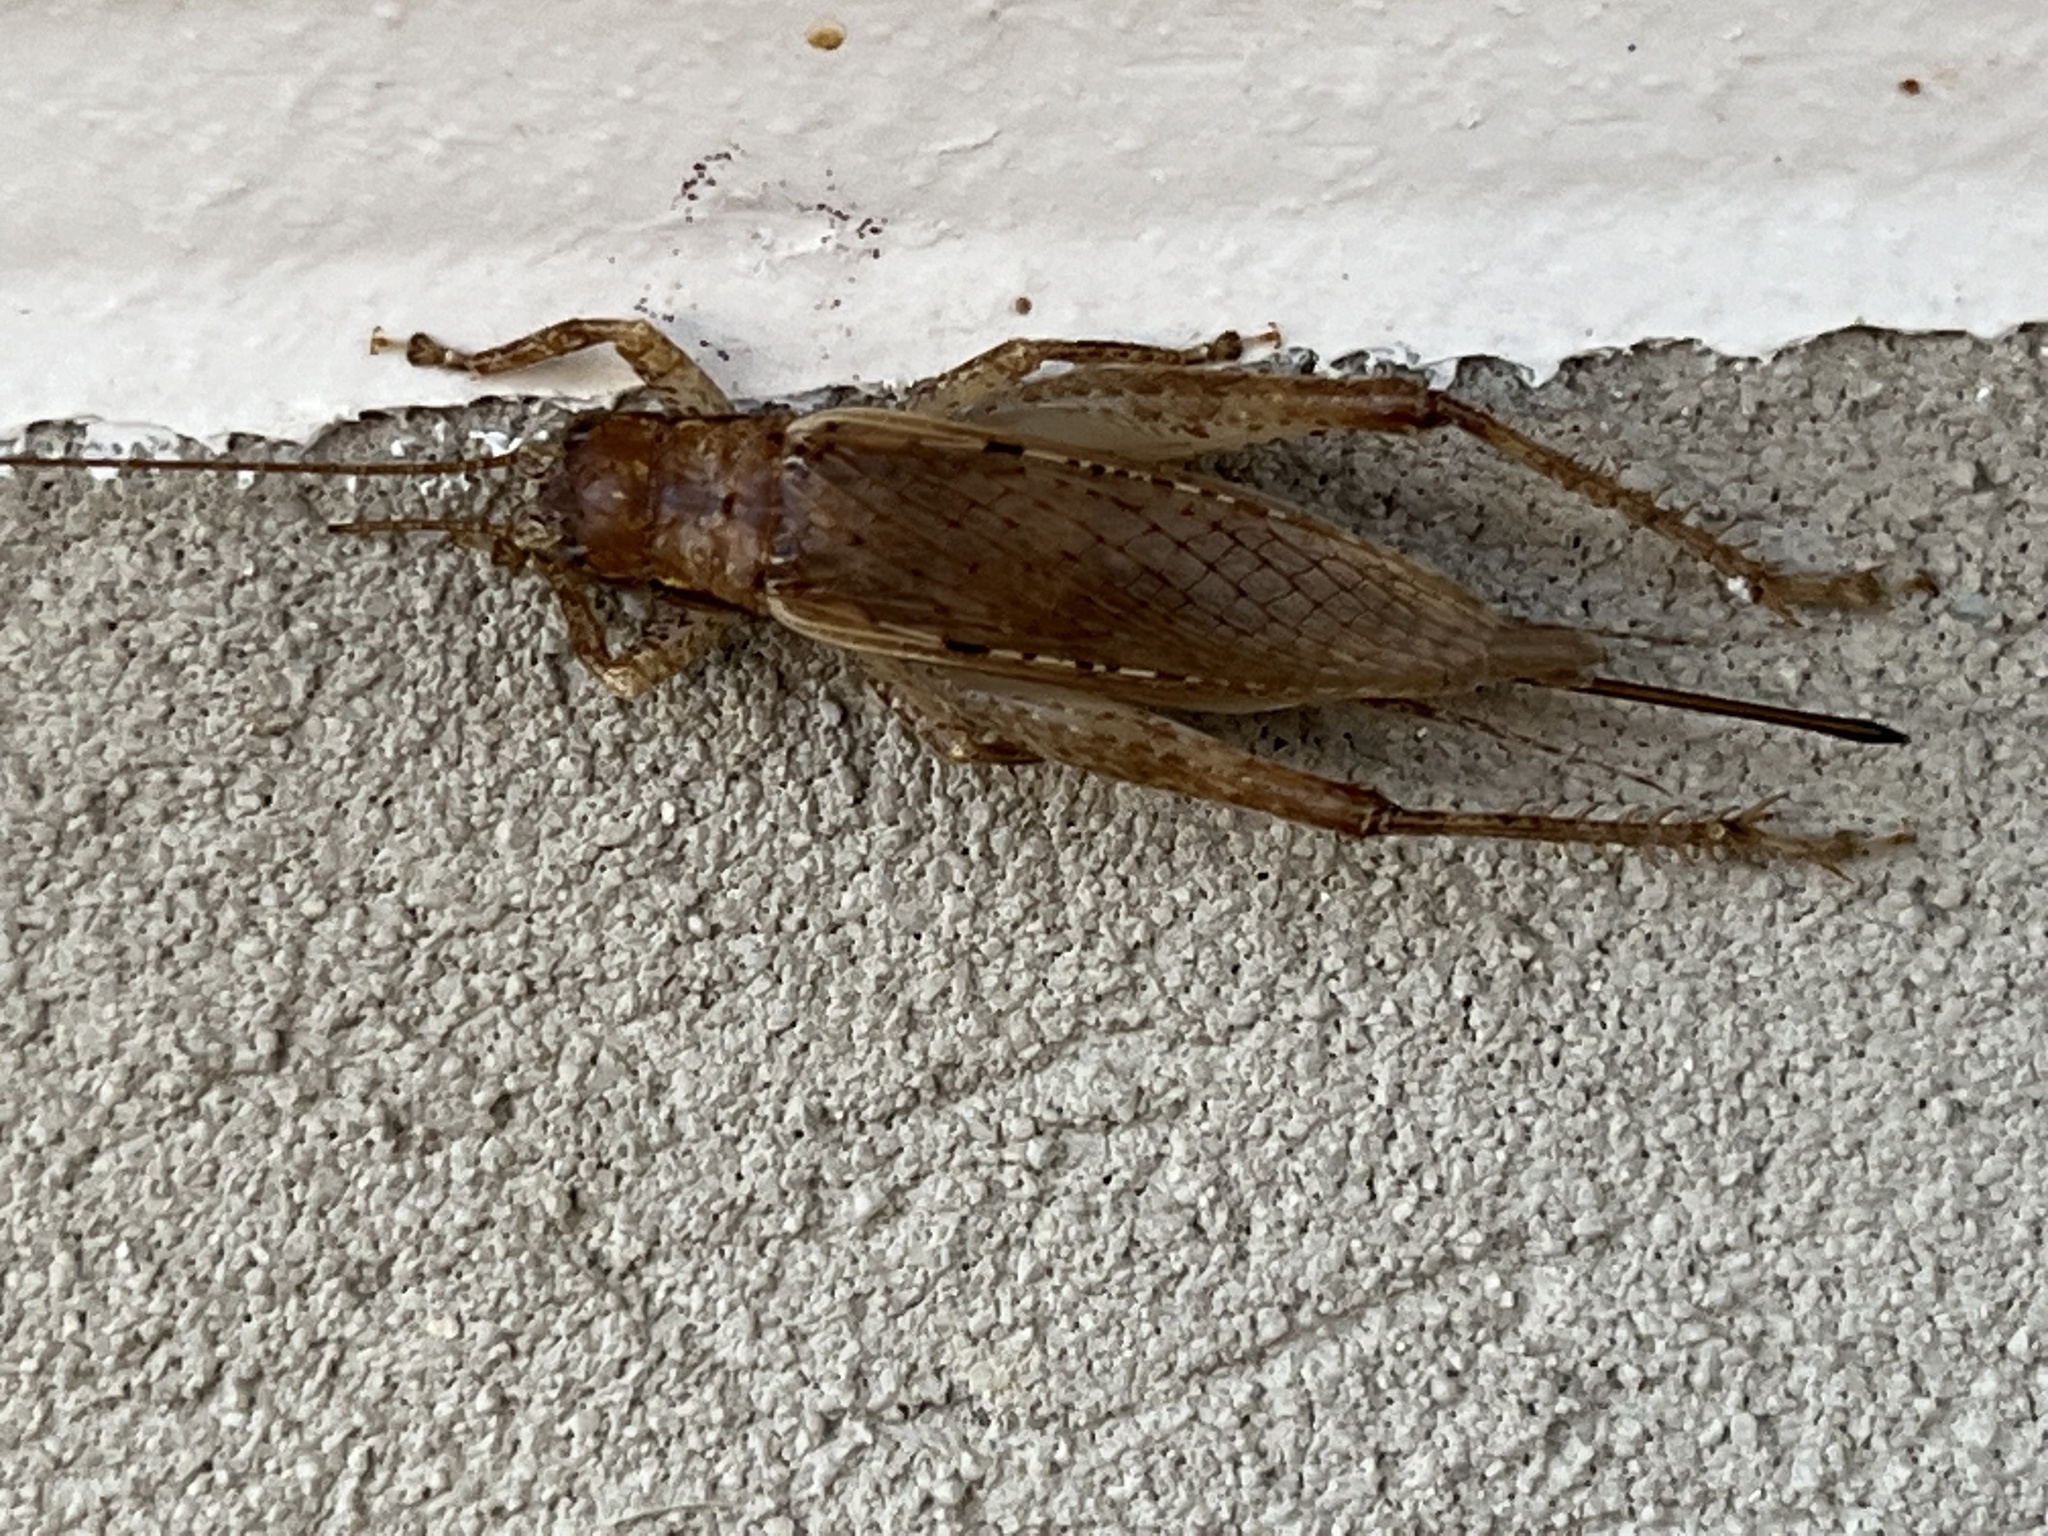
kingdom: Animalia
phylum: Arthropoda
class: Insecta
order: Orthoptera
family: Gryllidae
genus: Hapithus
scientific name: Hapithus saltator
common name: Jumping bush cricket
